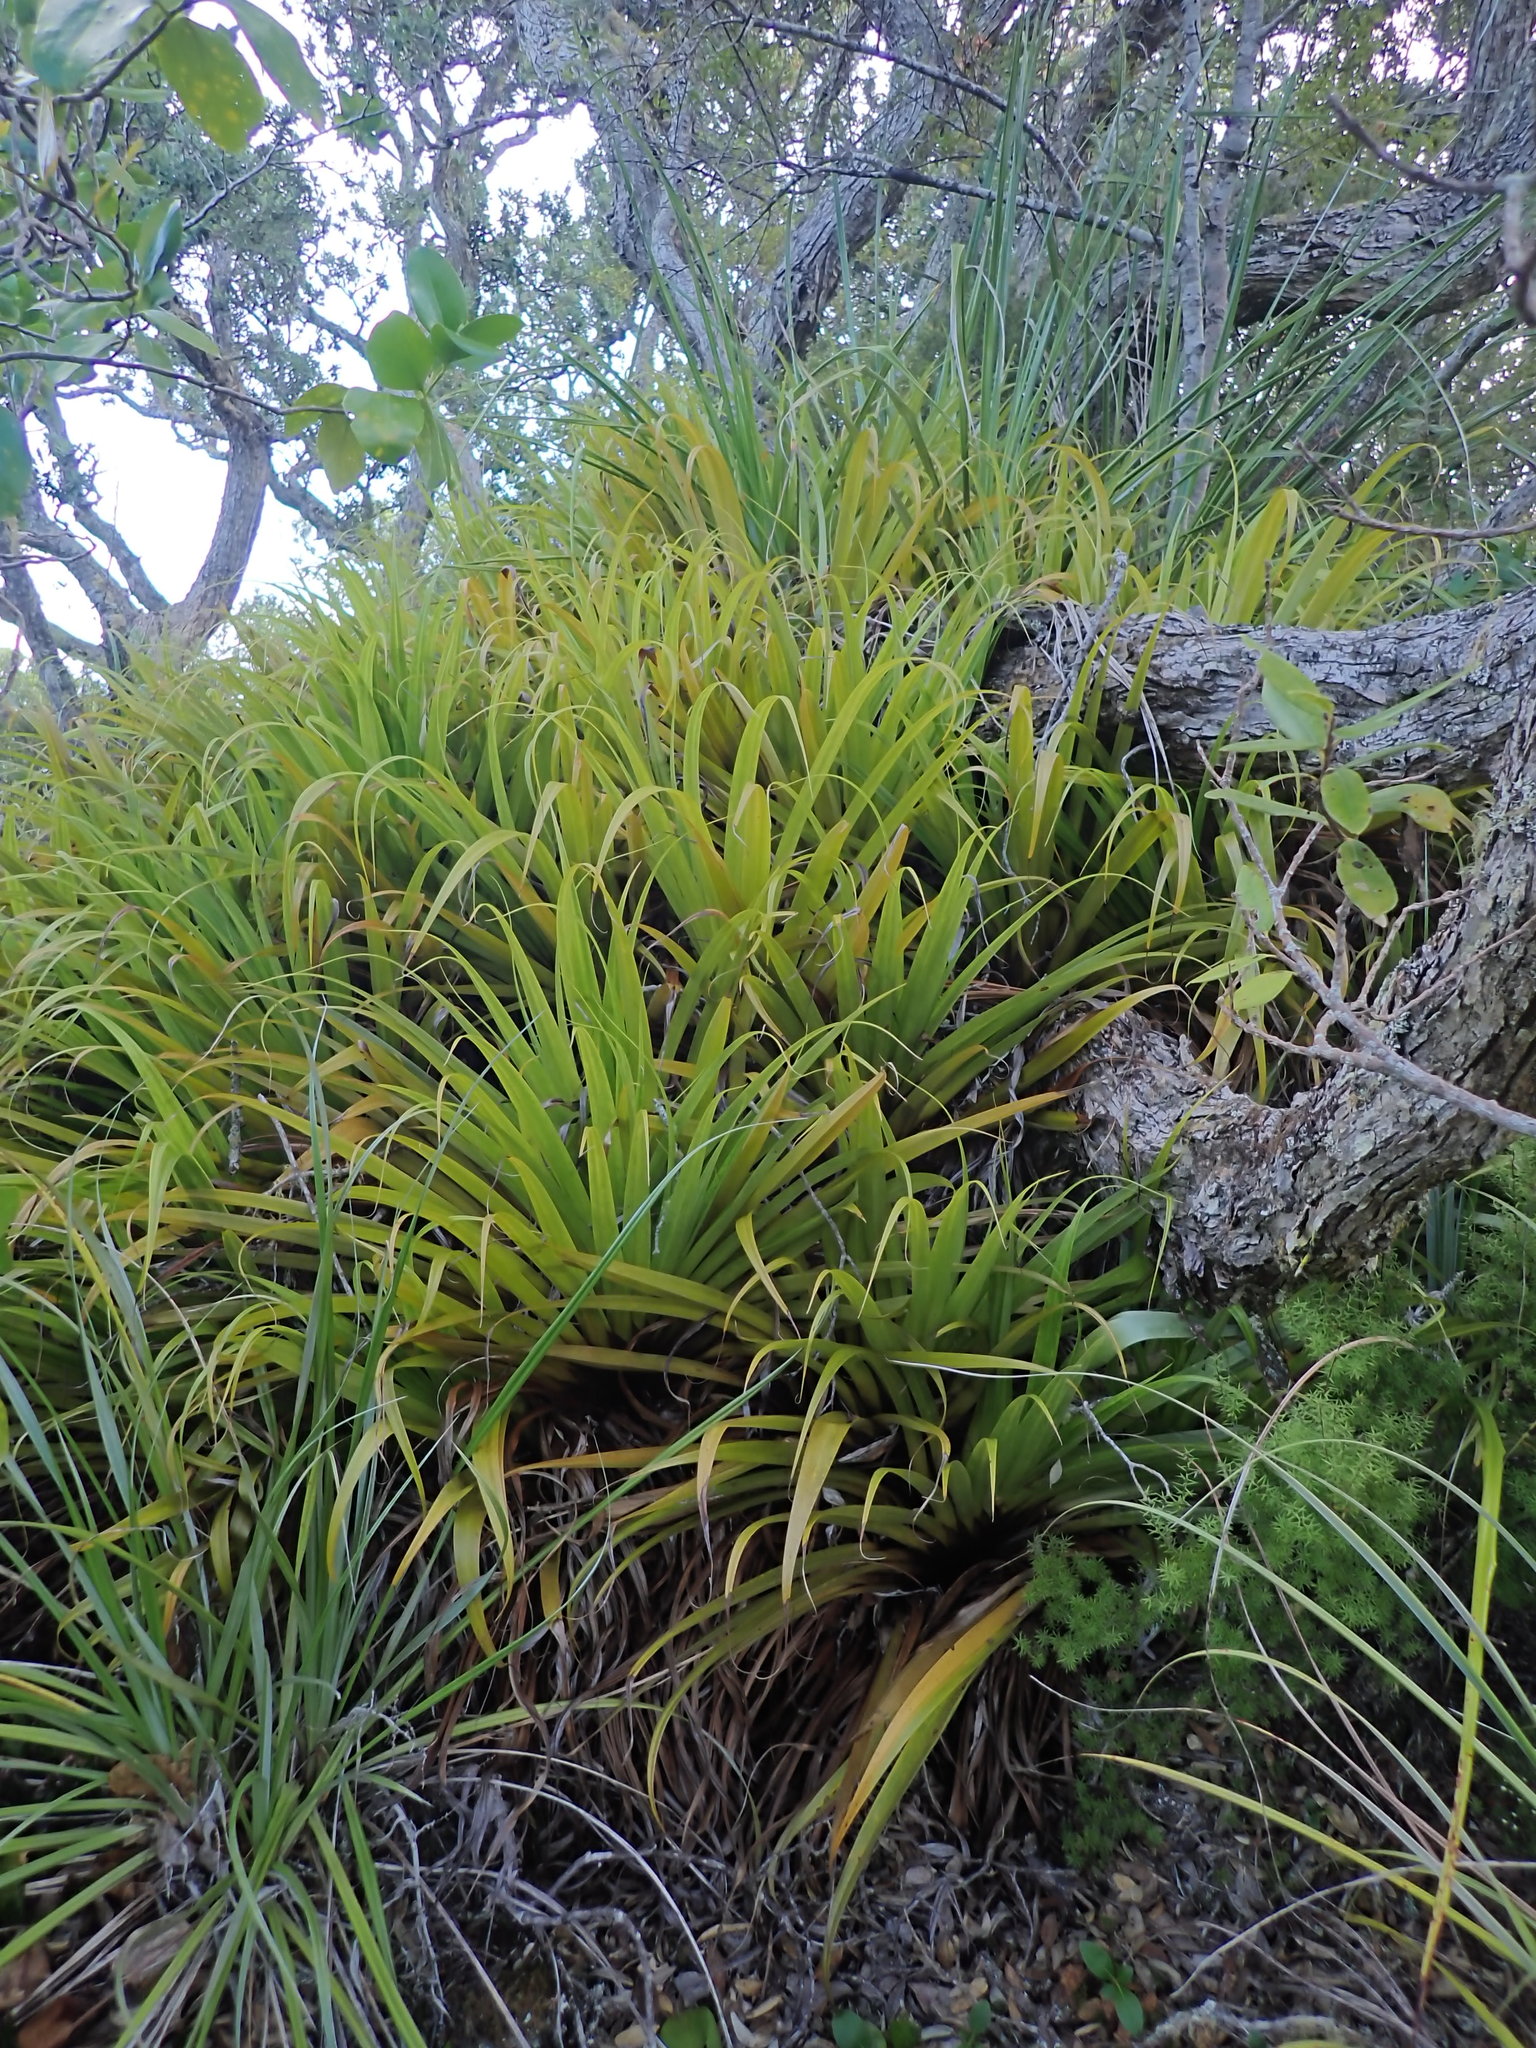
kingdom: Plantae
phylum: Tracheophyta
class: Liliopsida
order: Asparagales
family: Asteliaceae
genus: Astelia
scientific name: Astelia hastata
